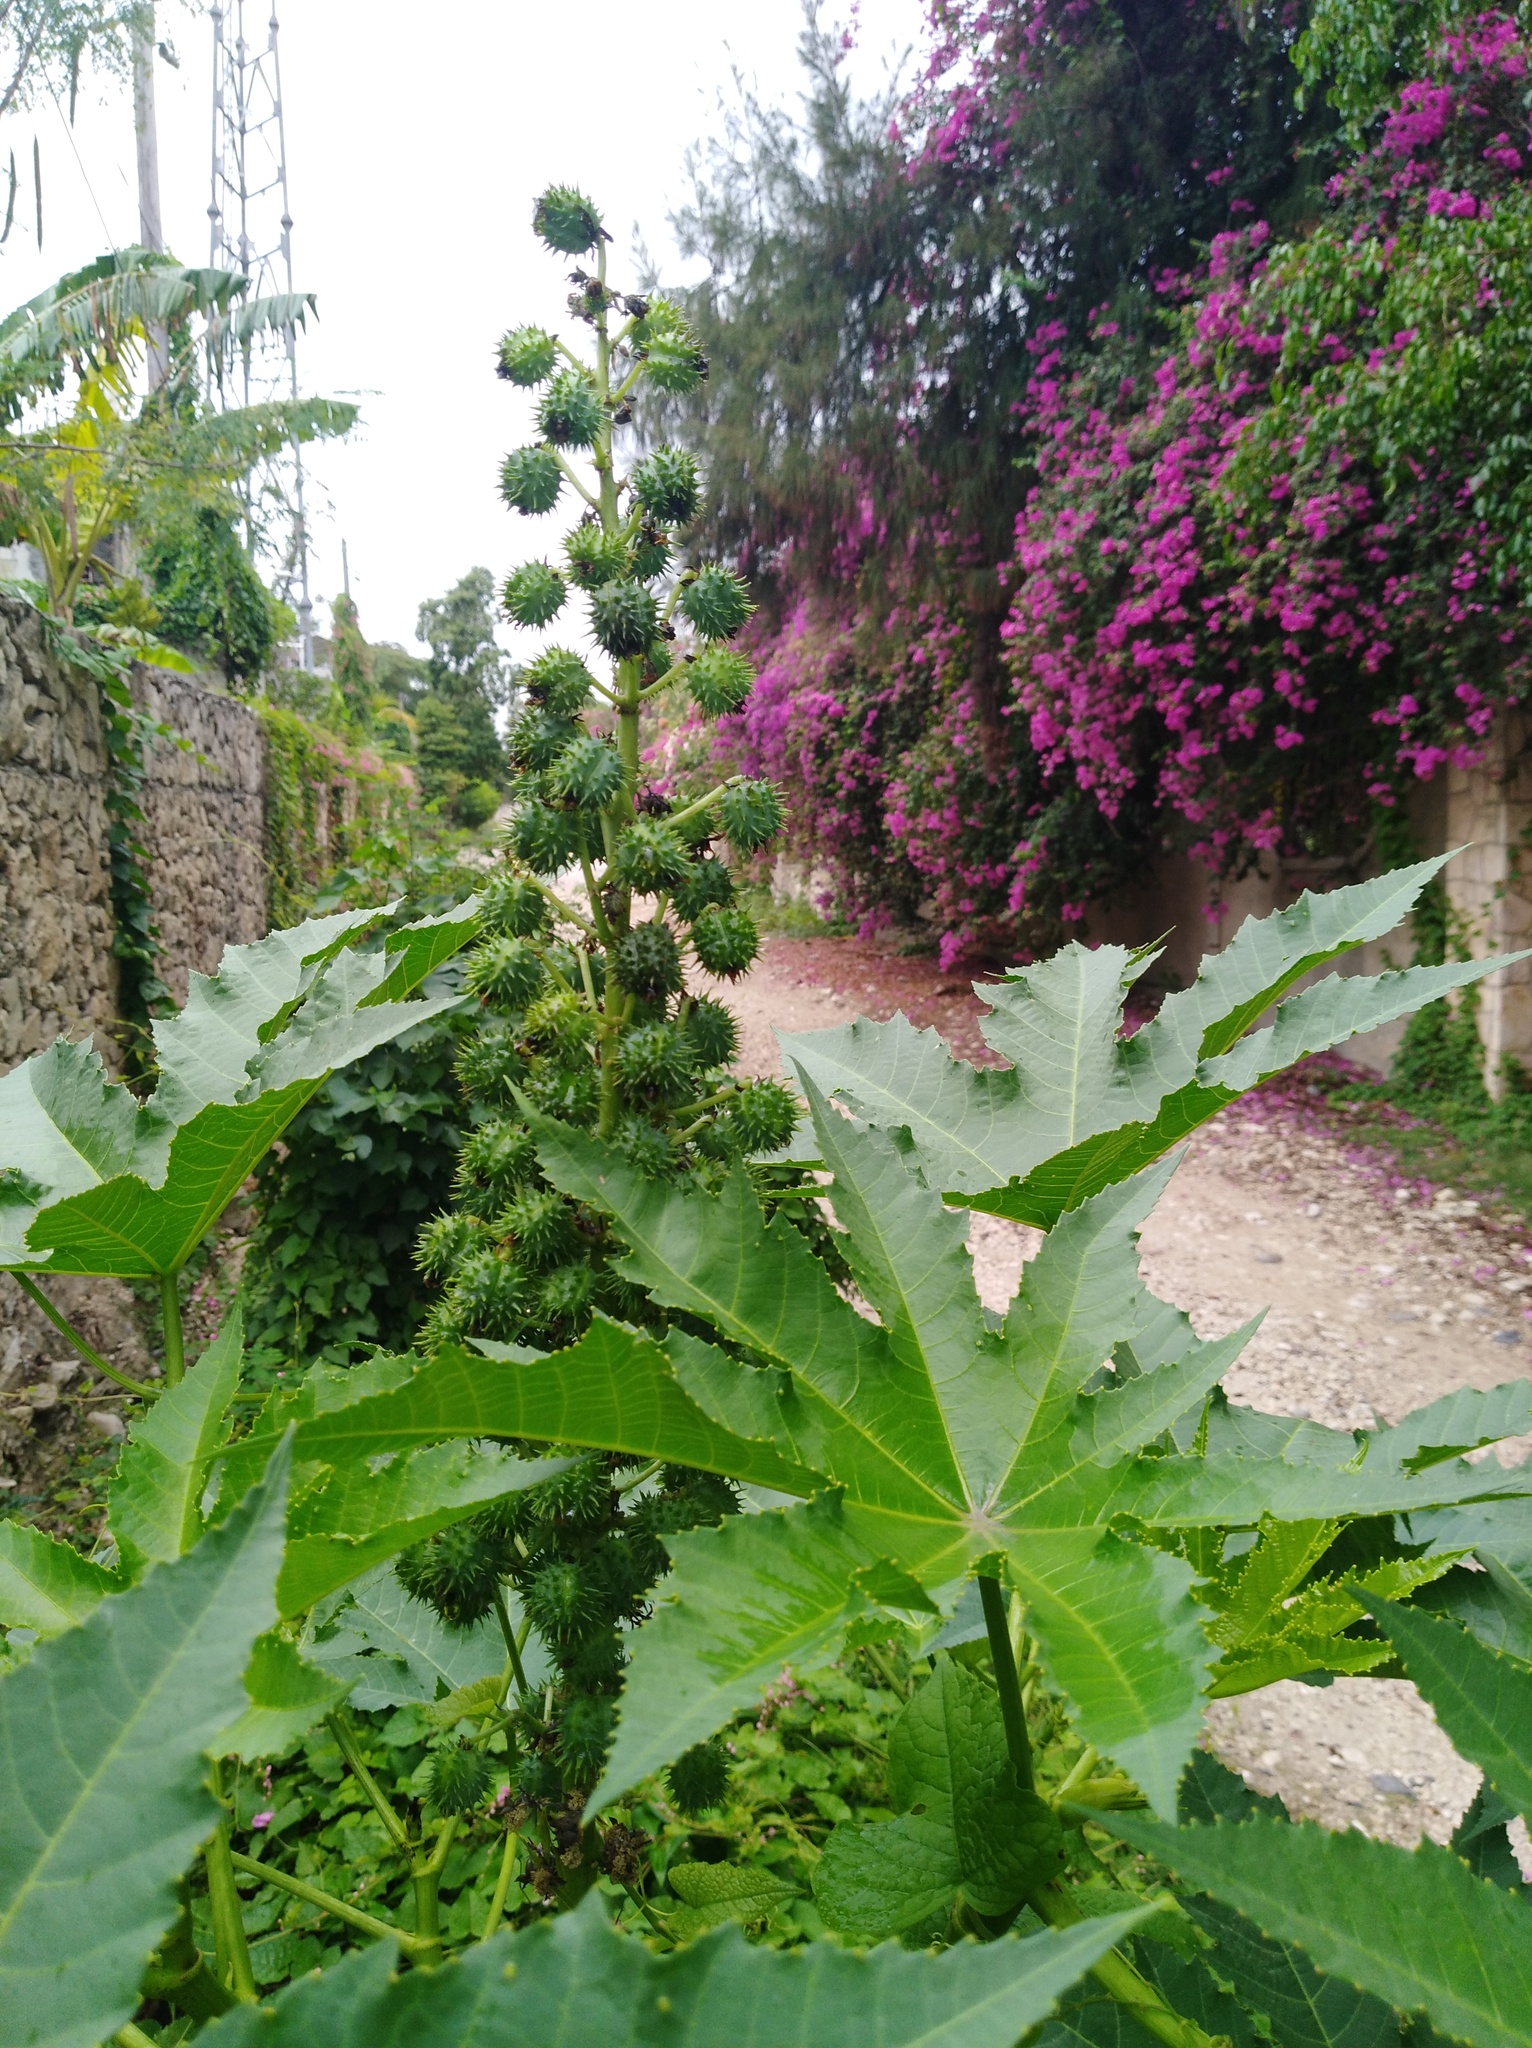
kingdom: Plantae
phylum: Tracheophyta
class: Magnoliopsida
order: Malpighiales
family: Euphorbiaceae
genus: Ricinus
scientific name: Ricinus communis
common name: Castor-oil-plant
